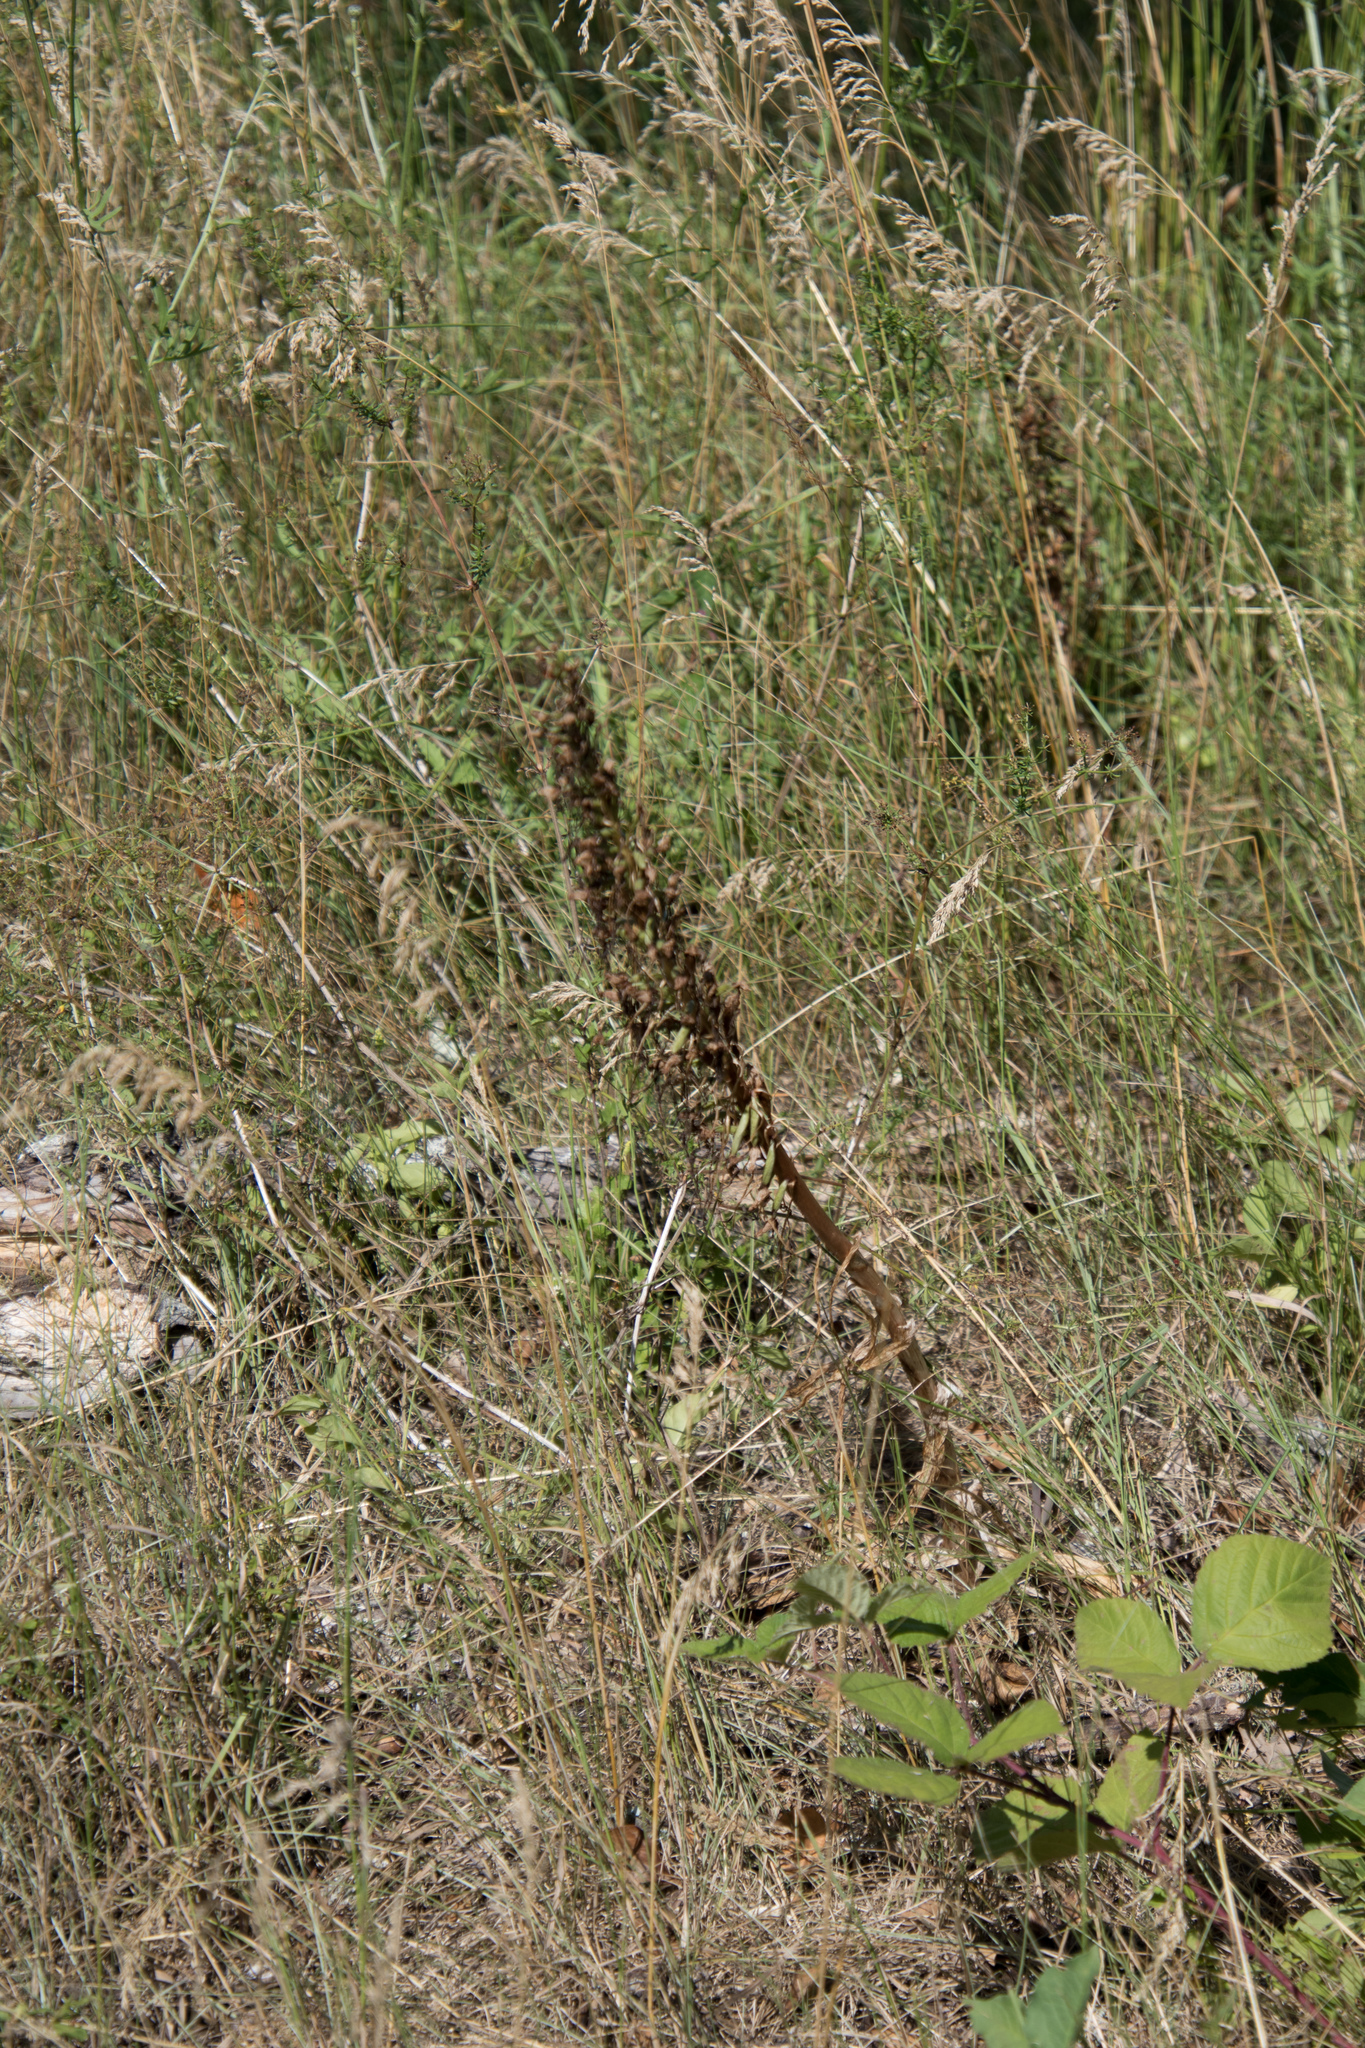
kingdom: Plantae
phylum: Tracheophyta
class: Liliopsida
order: Asparagales
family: Orchidaceae
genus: Himantoglossum
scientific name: Himantoglossum hircinum
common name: Lizard orchid
